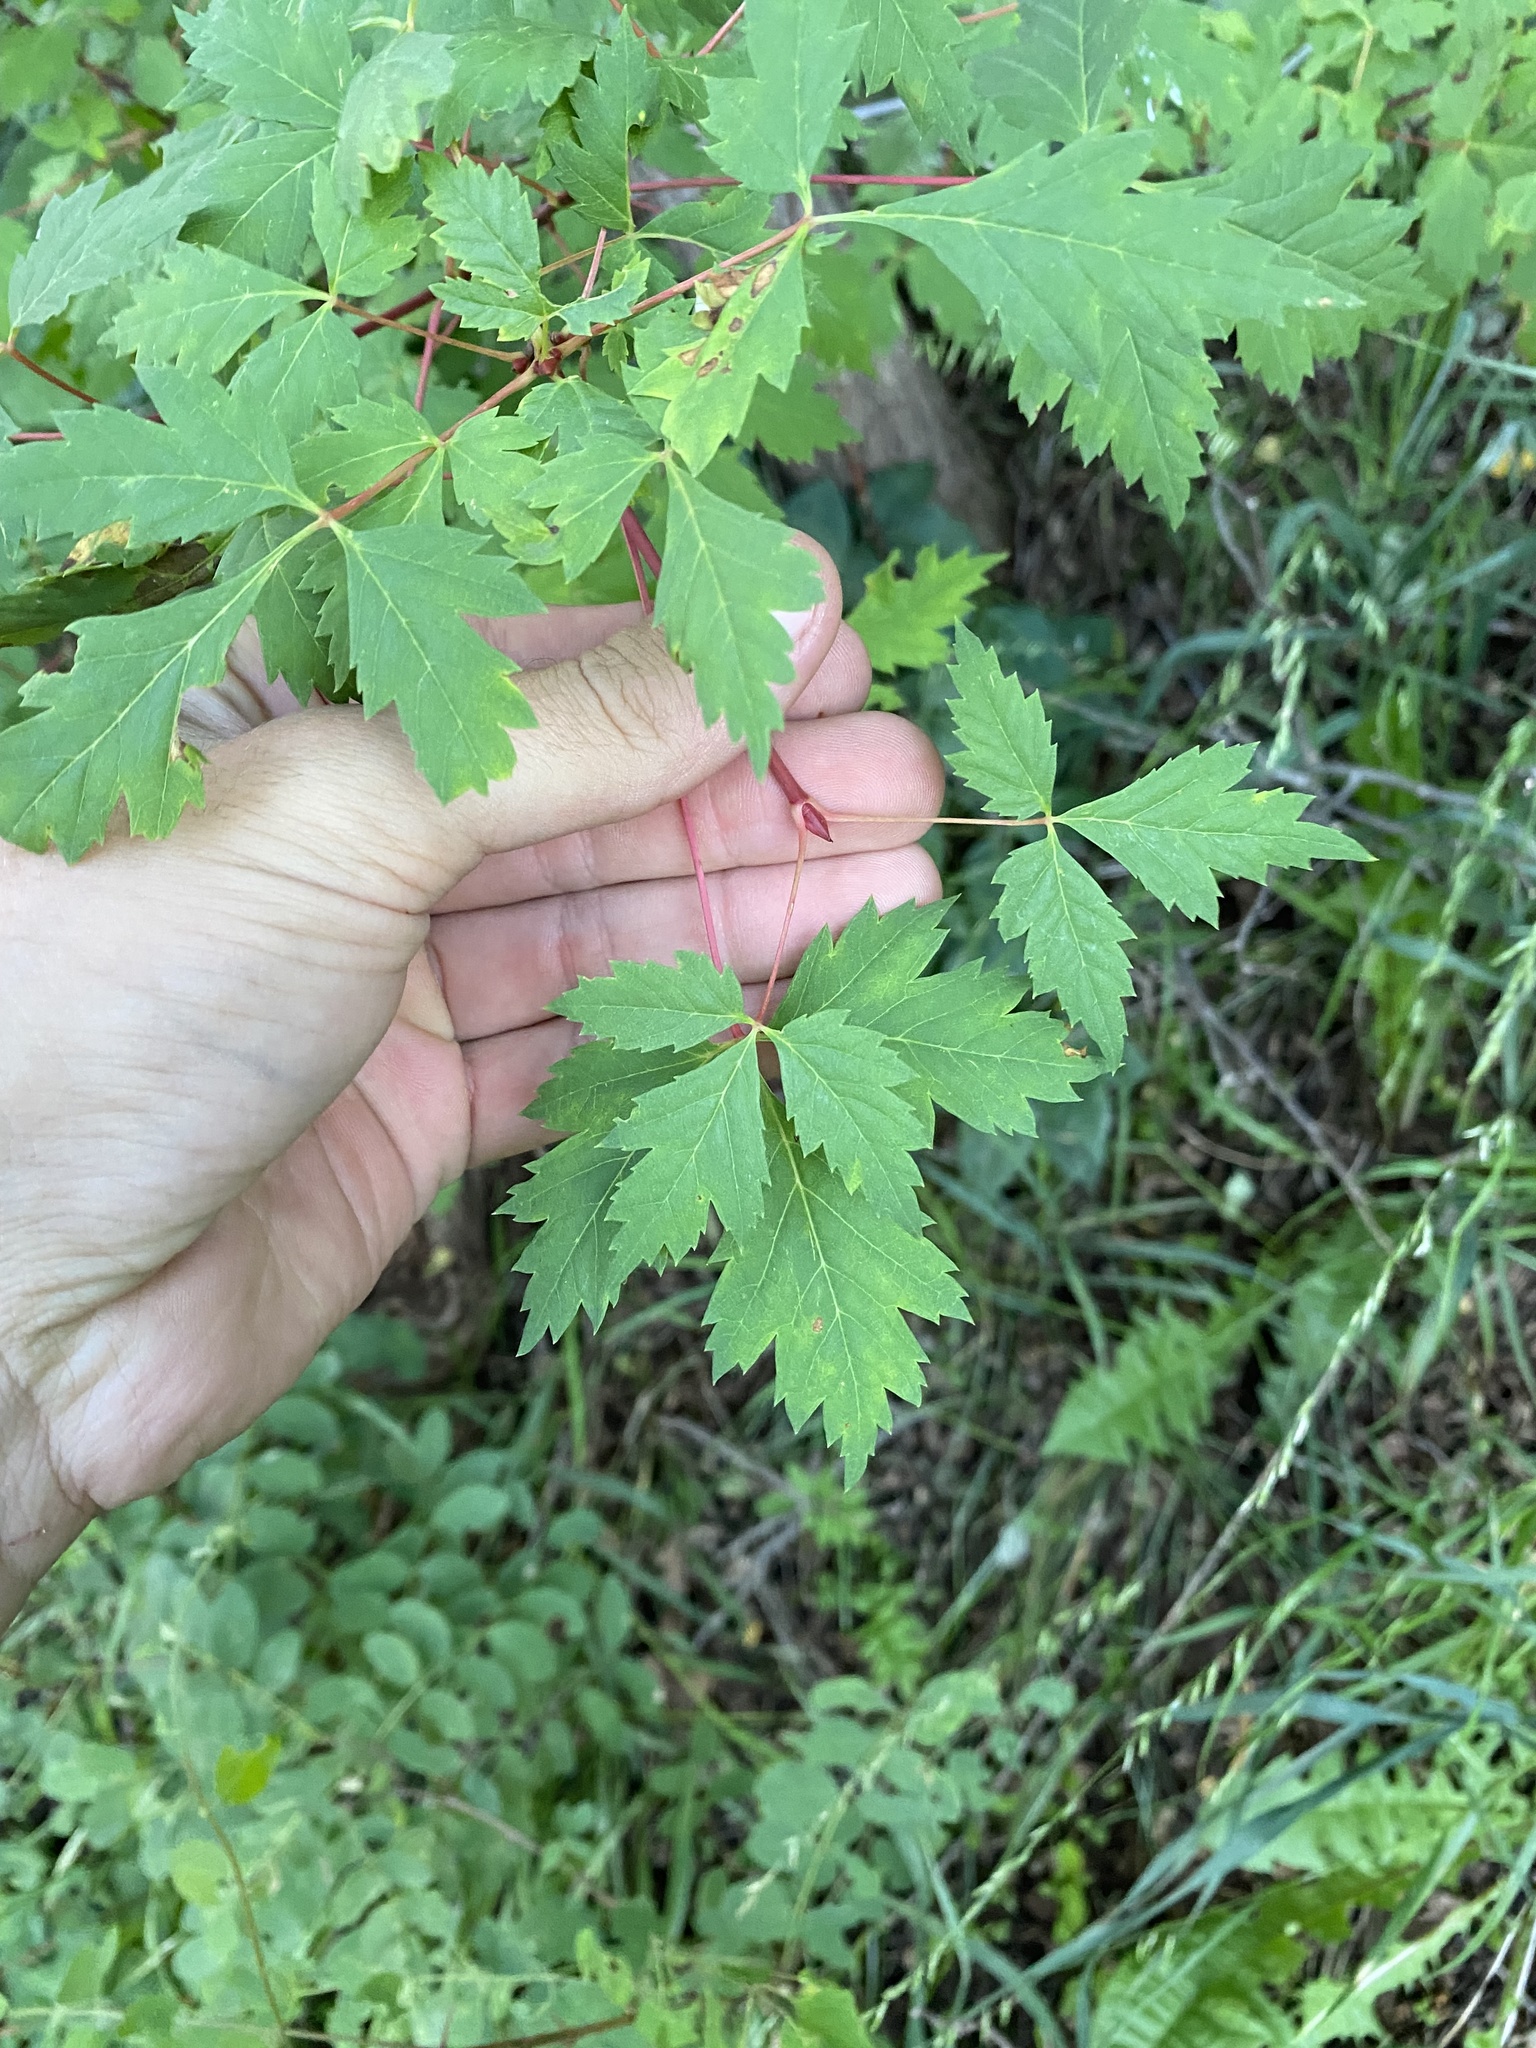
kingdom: Plantae
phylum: Tracheophyta
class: Magnoliopsida
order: Sapindales
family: Sapindaceae
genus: Acer
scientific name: Acer glabrum
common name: Rocky mountain maple
